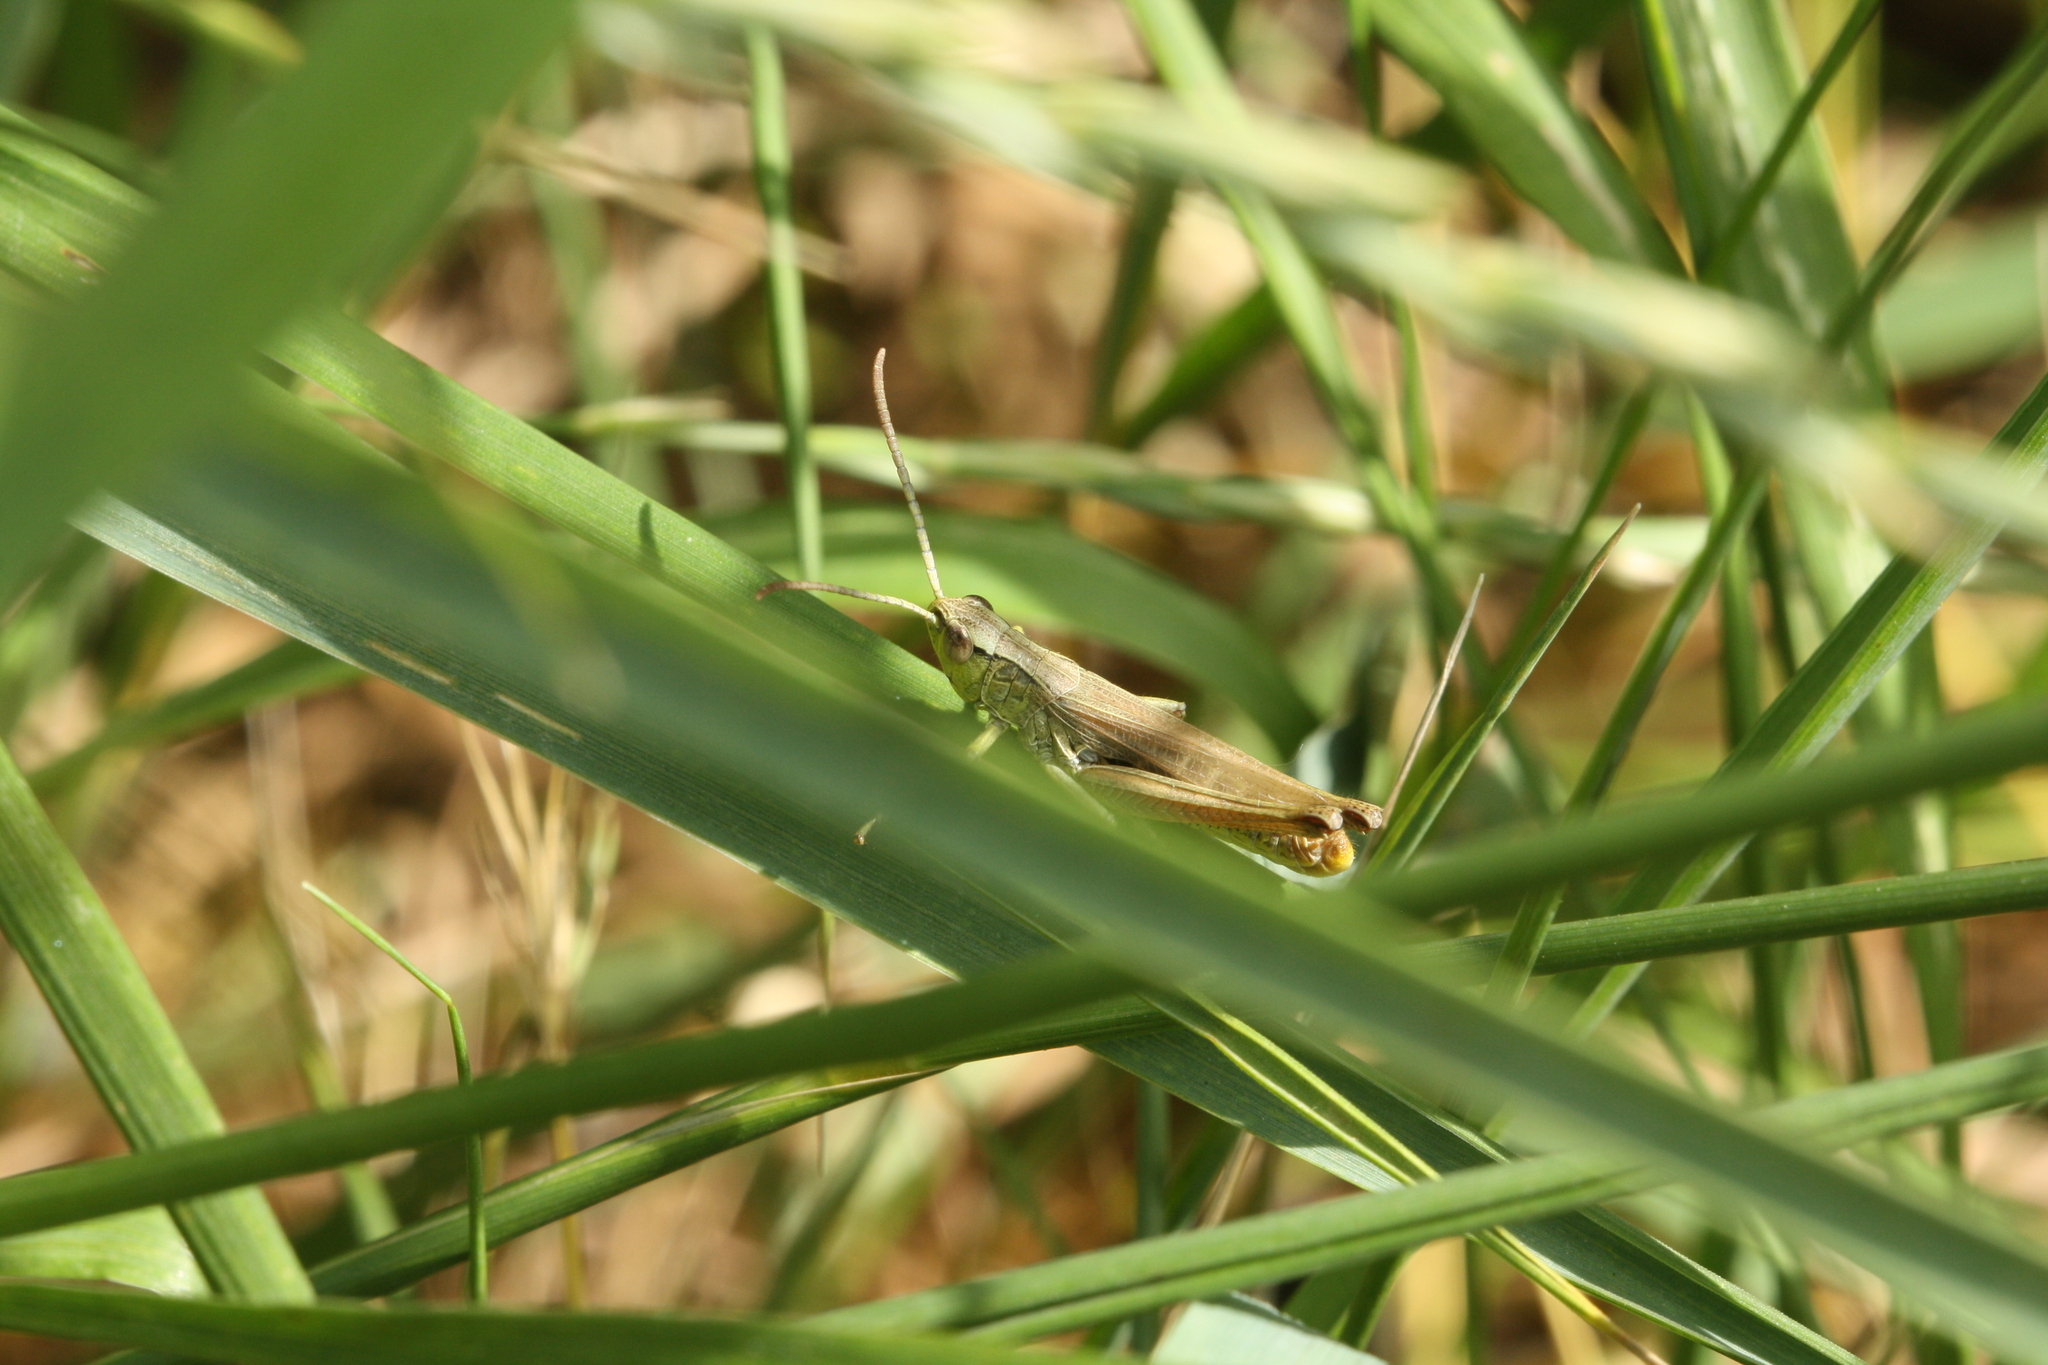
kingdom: Animalia
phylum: Arthropoda
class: Insecta
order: Orthoptera
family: Acrididae
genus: Pseudochorthippus
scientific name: Pseudochorthippus parallelus
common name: Meadow grasshopper
